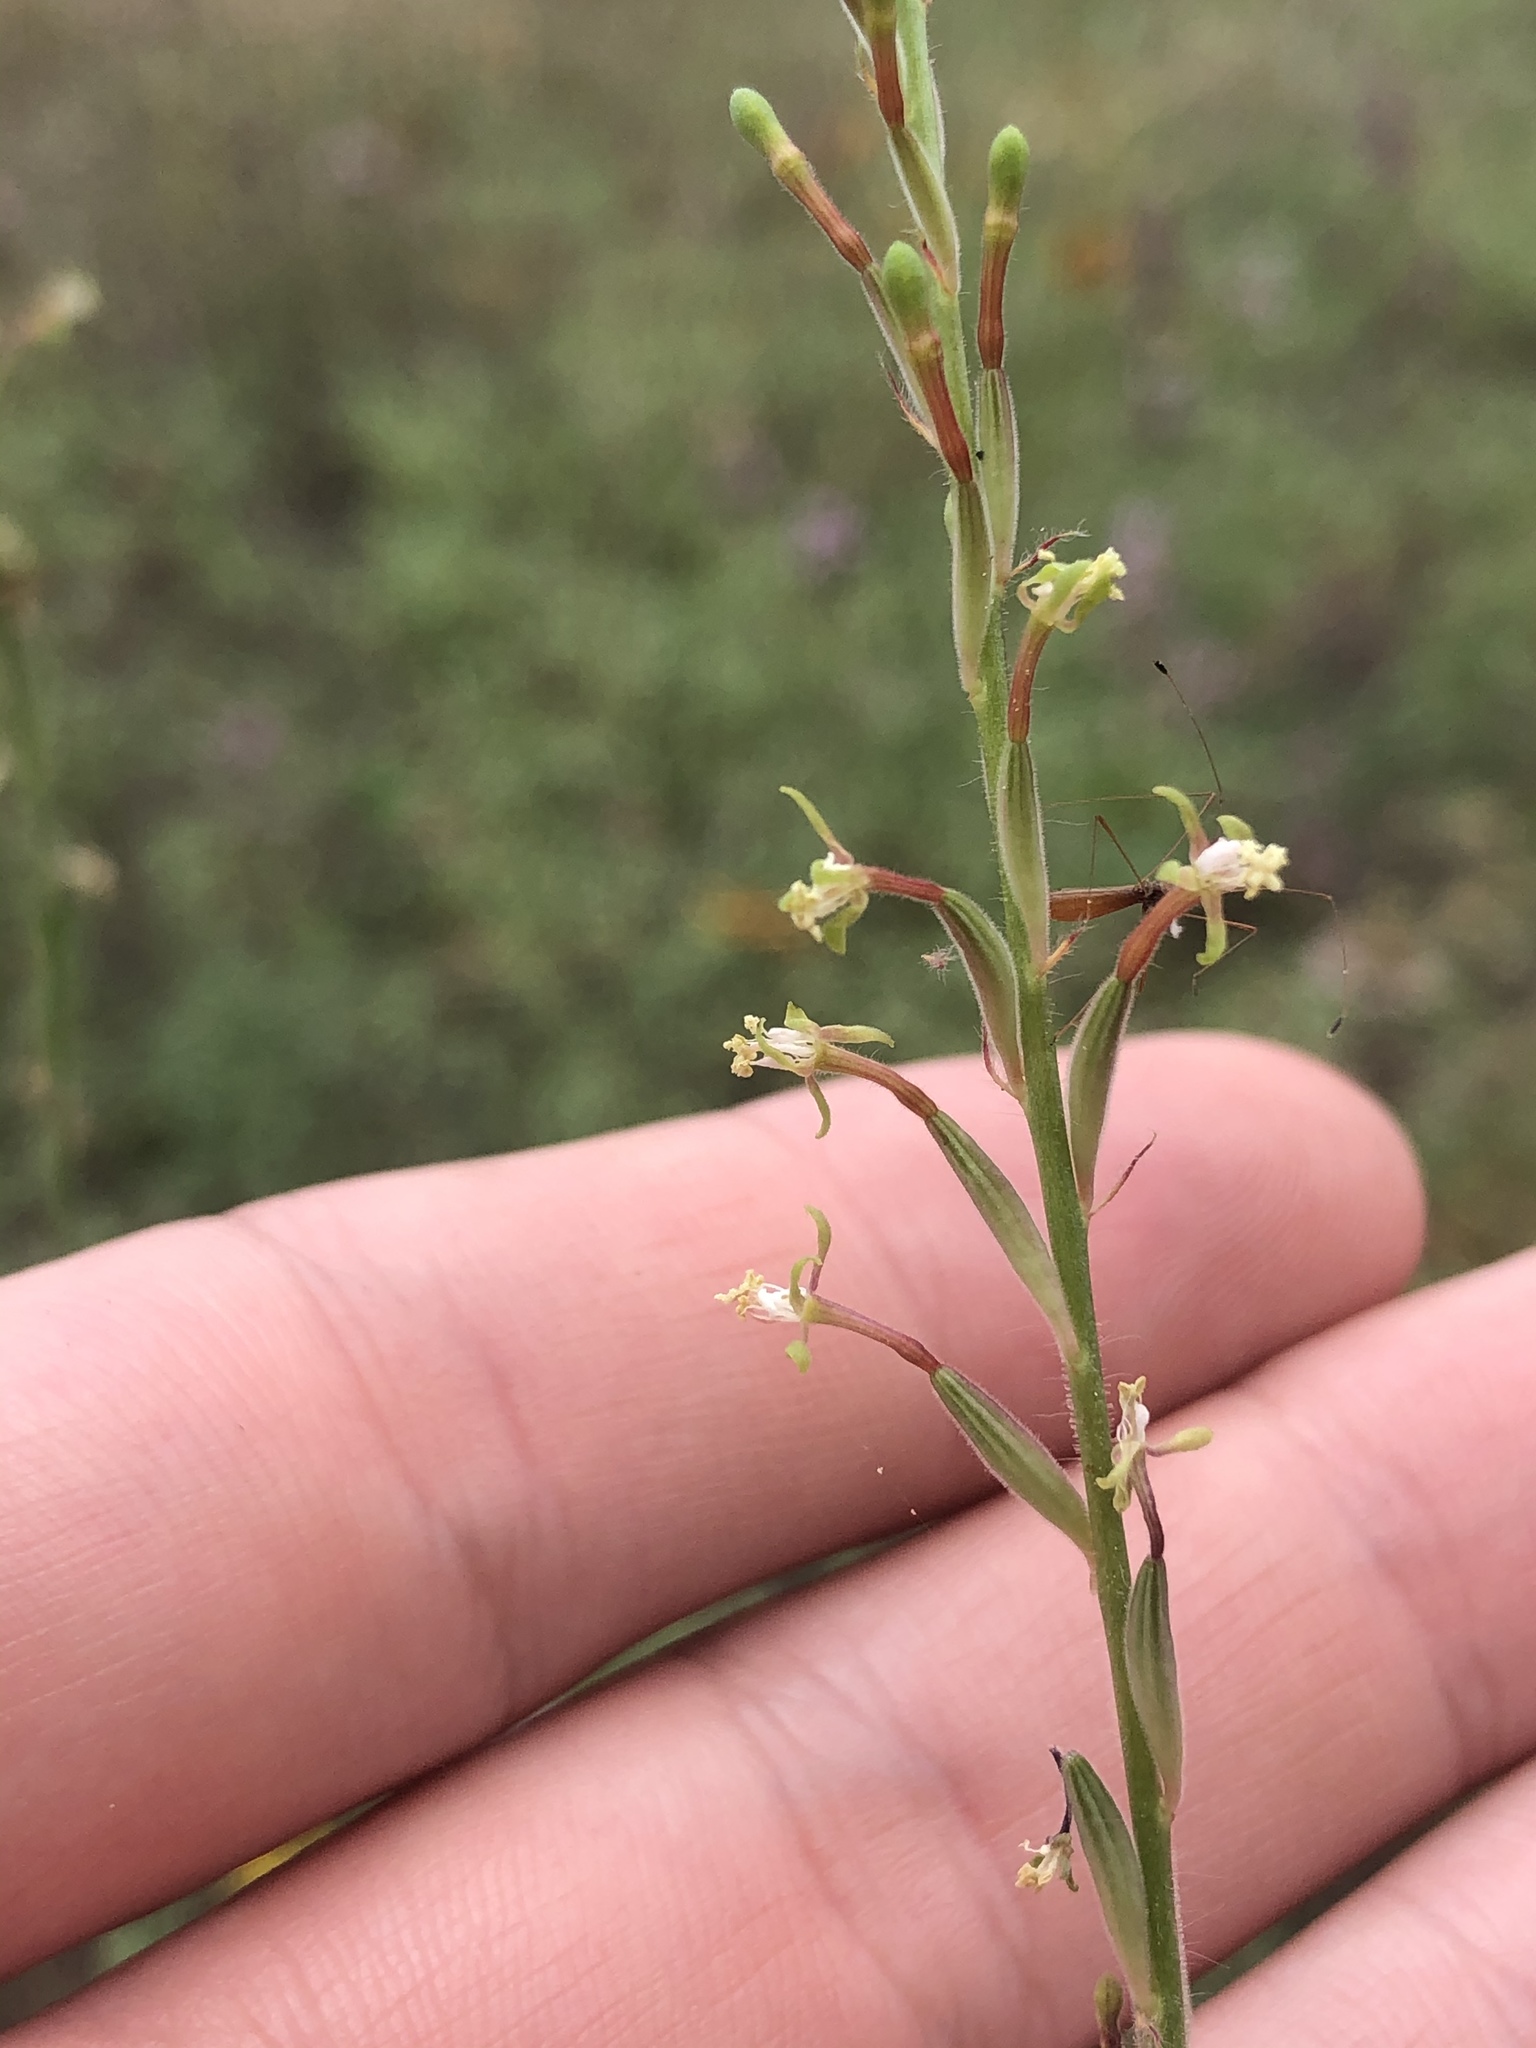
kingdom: Plantae
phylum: Tracheophyta
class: Magnoliopsida
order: Myrtales
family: Onagraceae
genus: Oenothera
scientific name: Oenothera curtiflora
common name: Velvetweed
